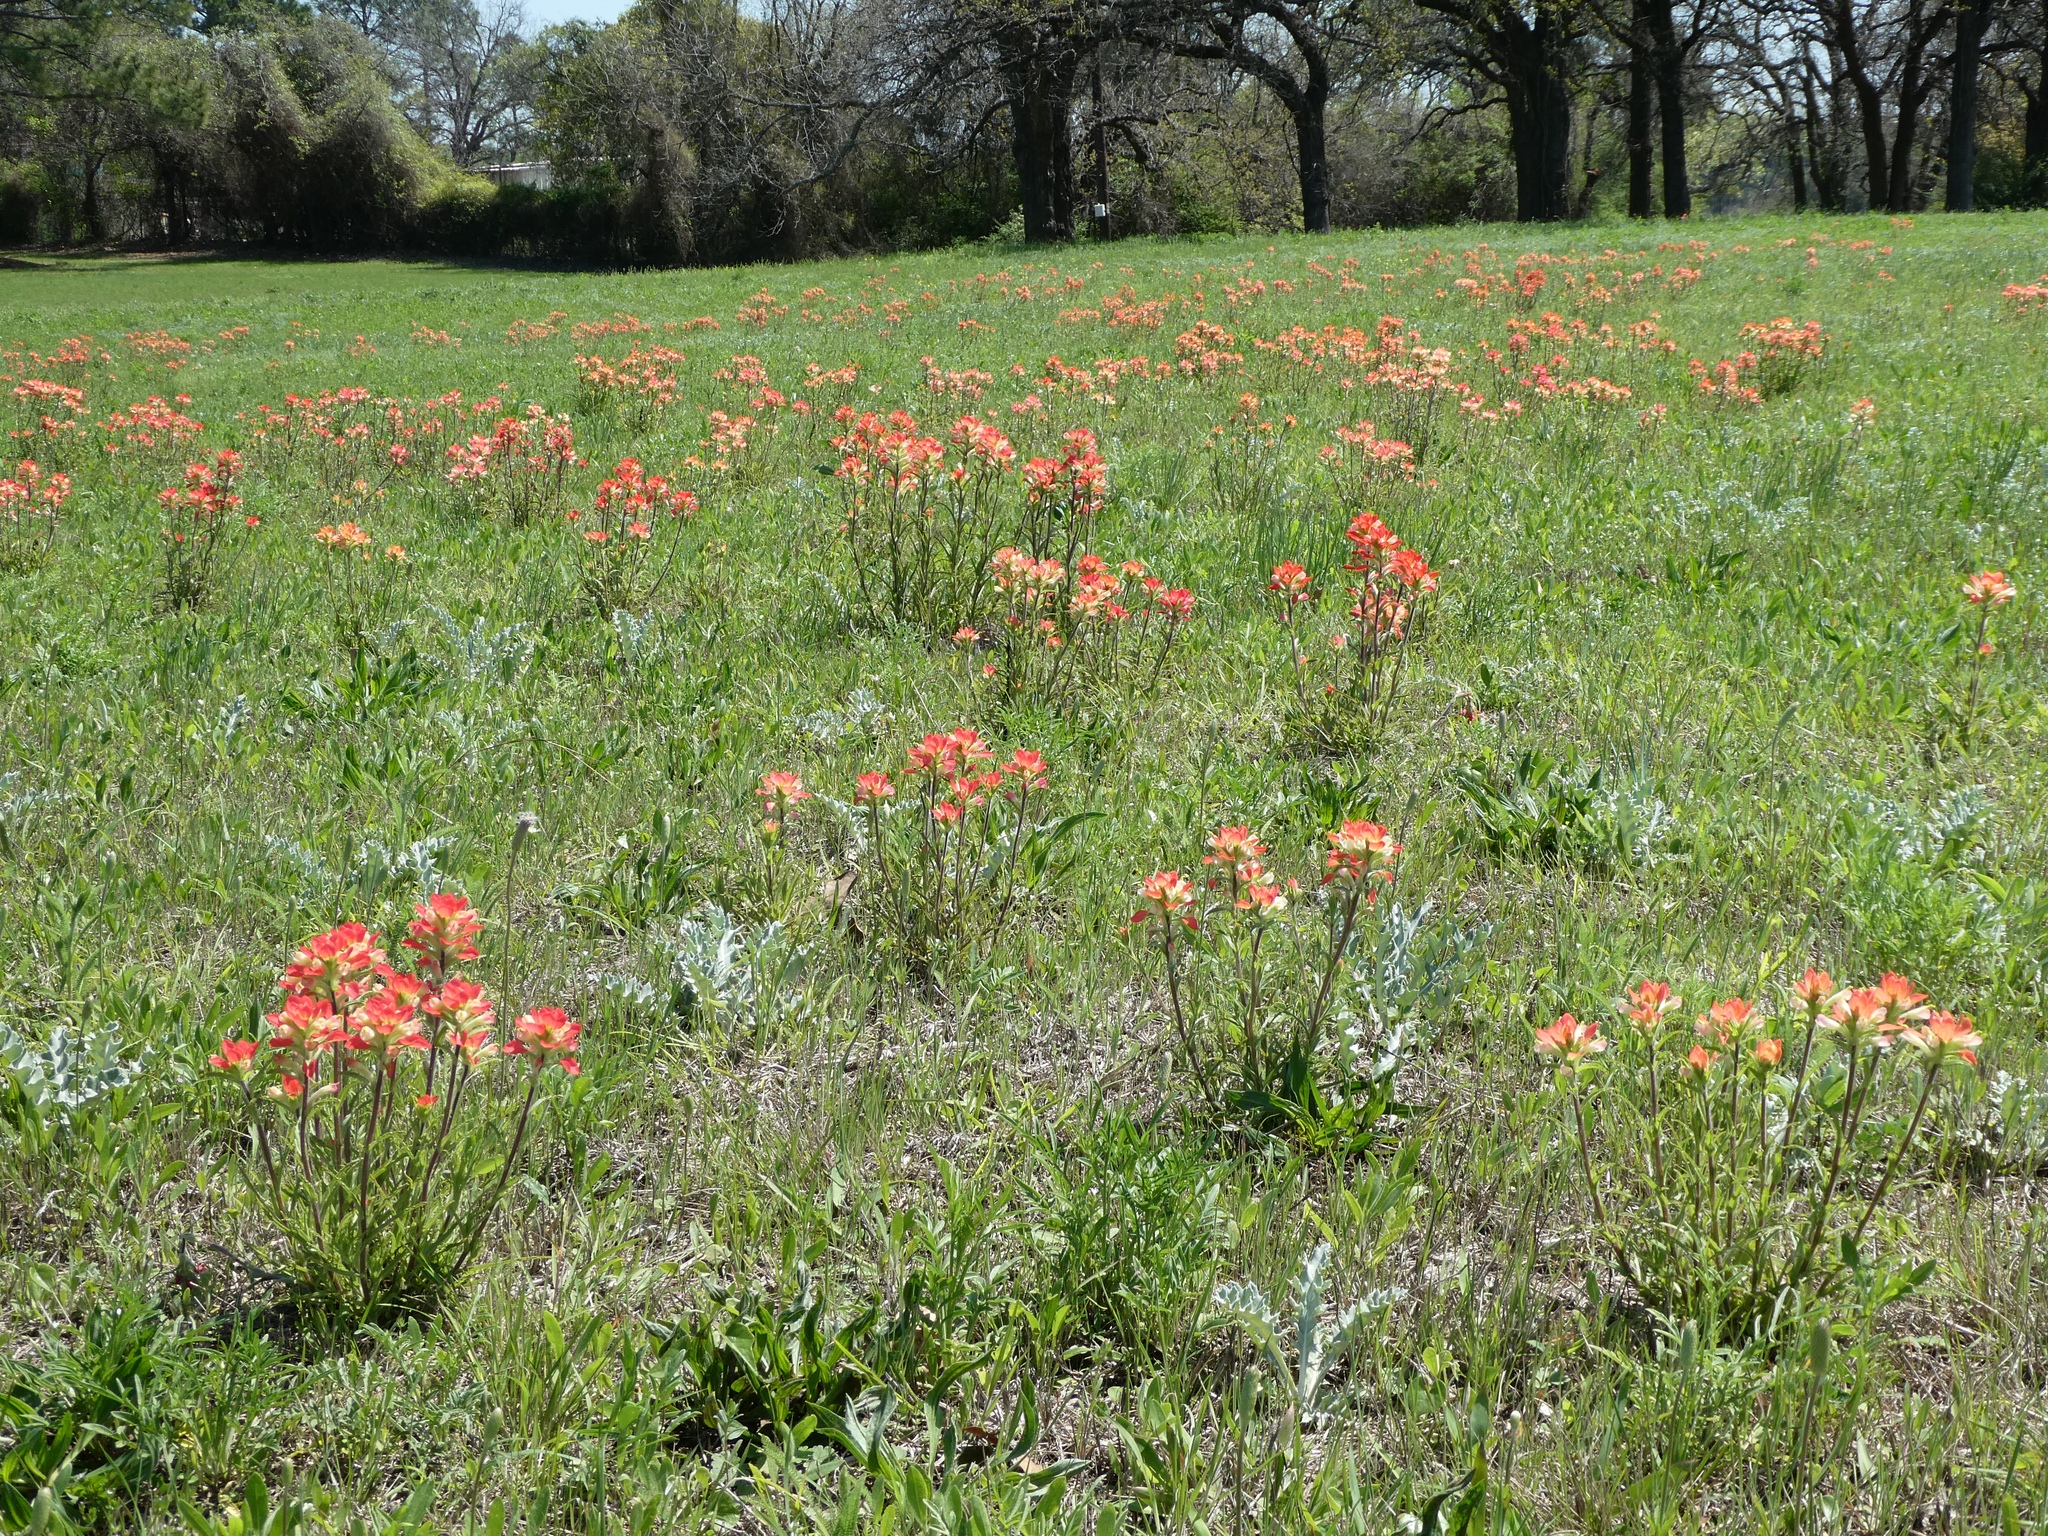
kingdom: Plantae
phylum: Tracheophyta
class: Magnoliopsida
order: Lamiales
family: Orobanchaceae
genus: Castilleja
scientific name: Castilleja indivisa
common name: Texas paintbrush
